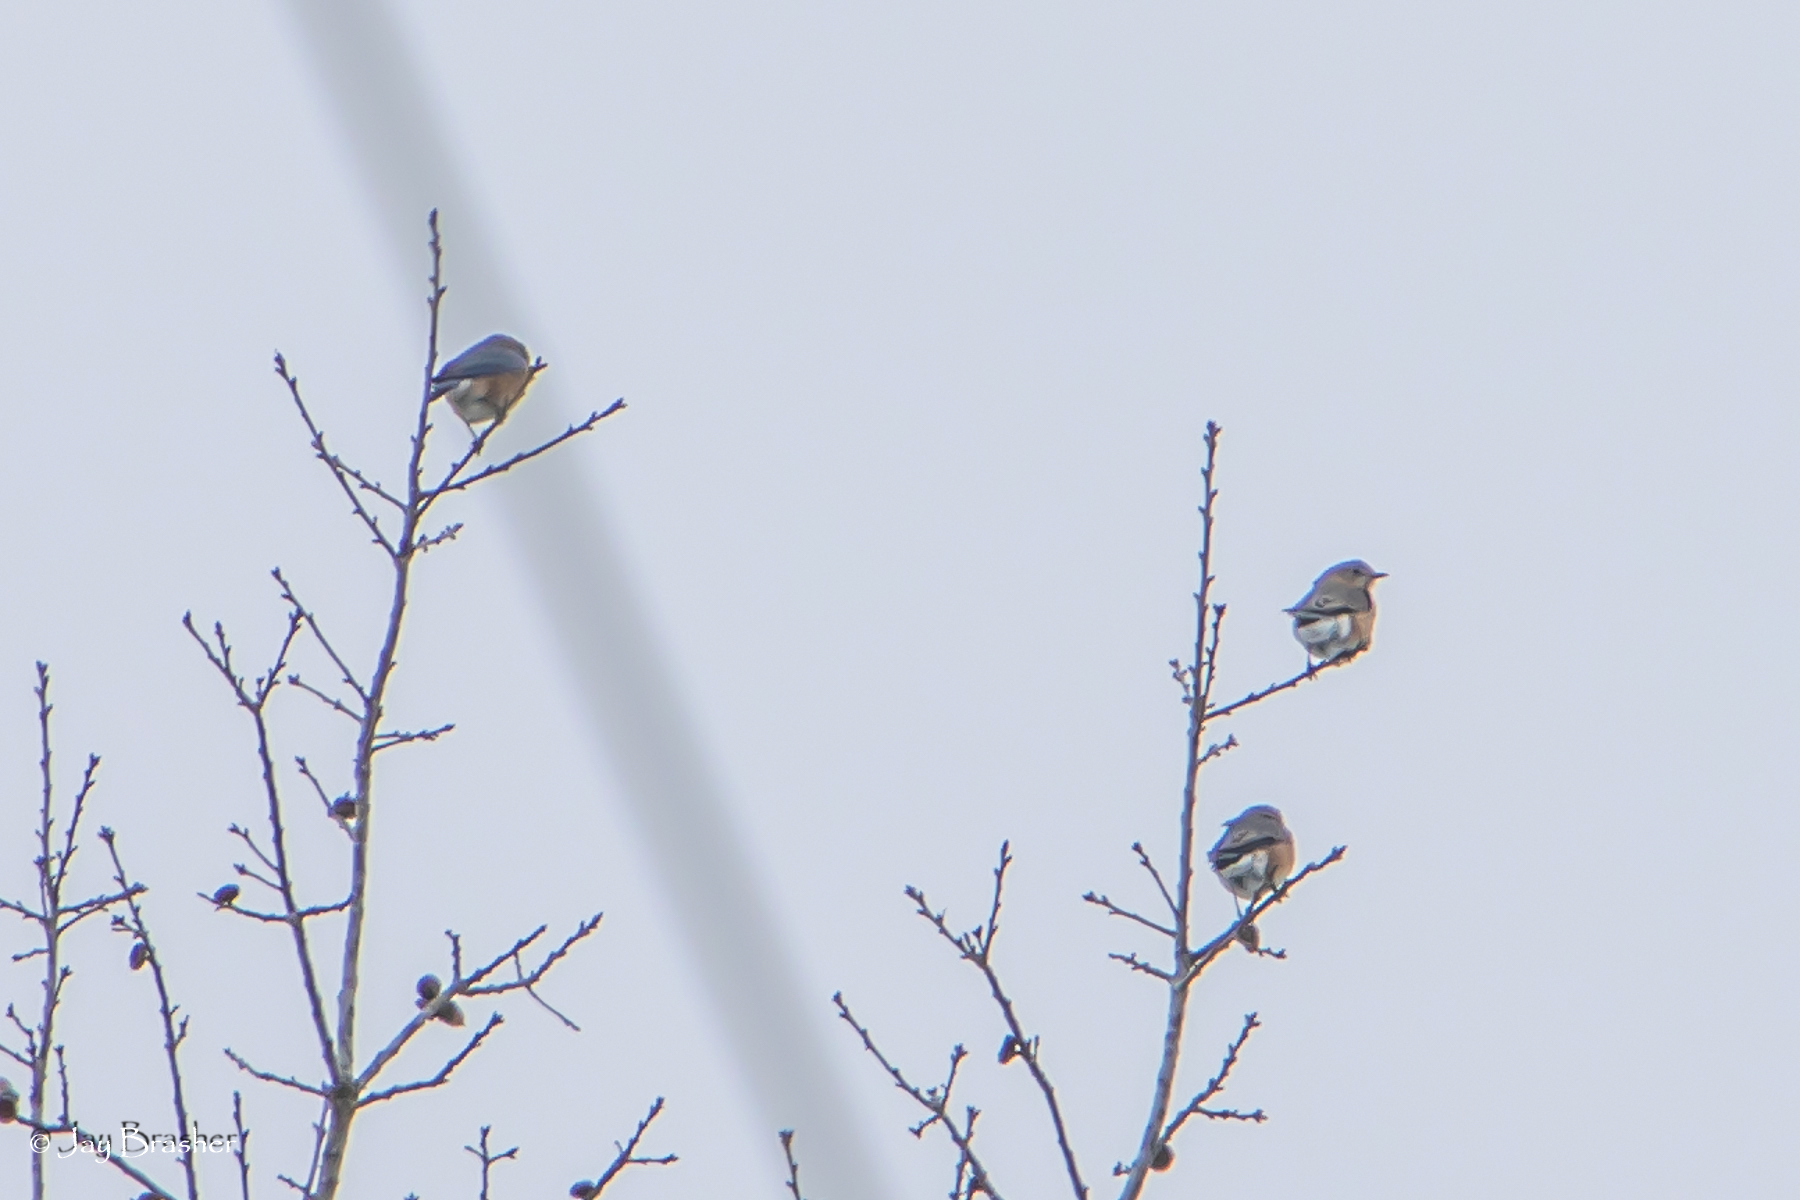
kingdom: Animalia
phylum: Chordata
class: Aves
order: Passeriformes
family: Turdidae
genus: Sialia
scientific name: Sialia sialis
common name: Eastern bluebird
